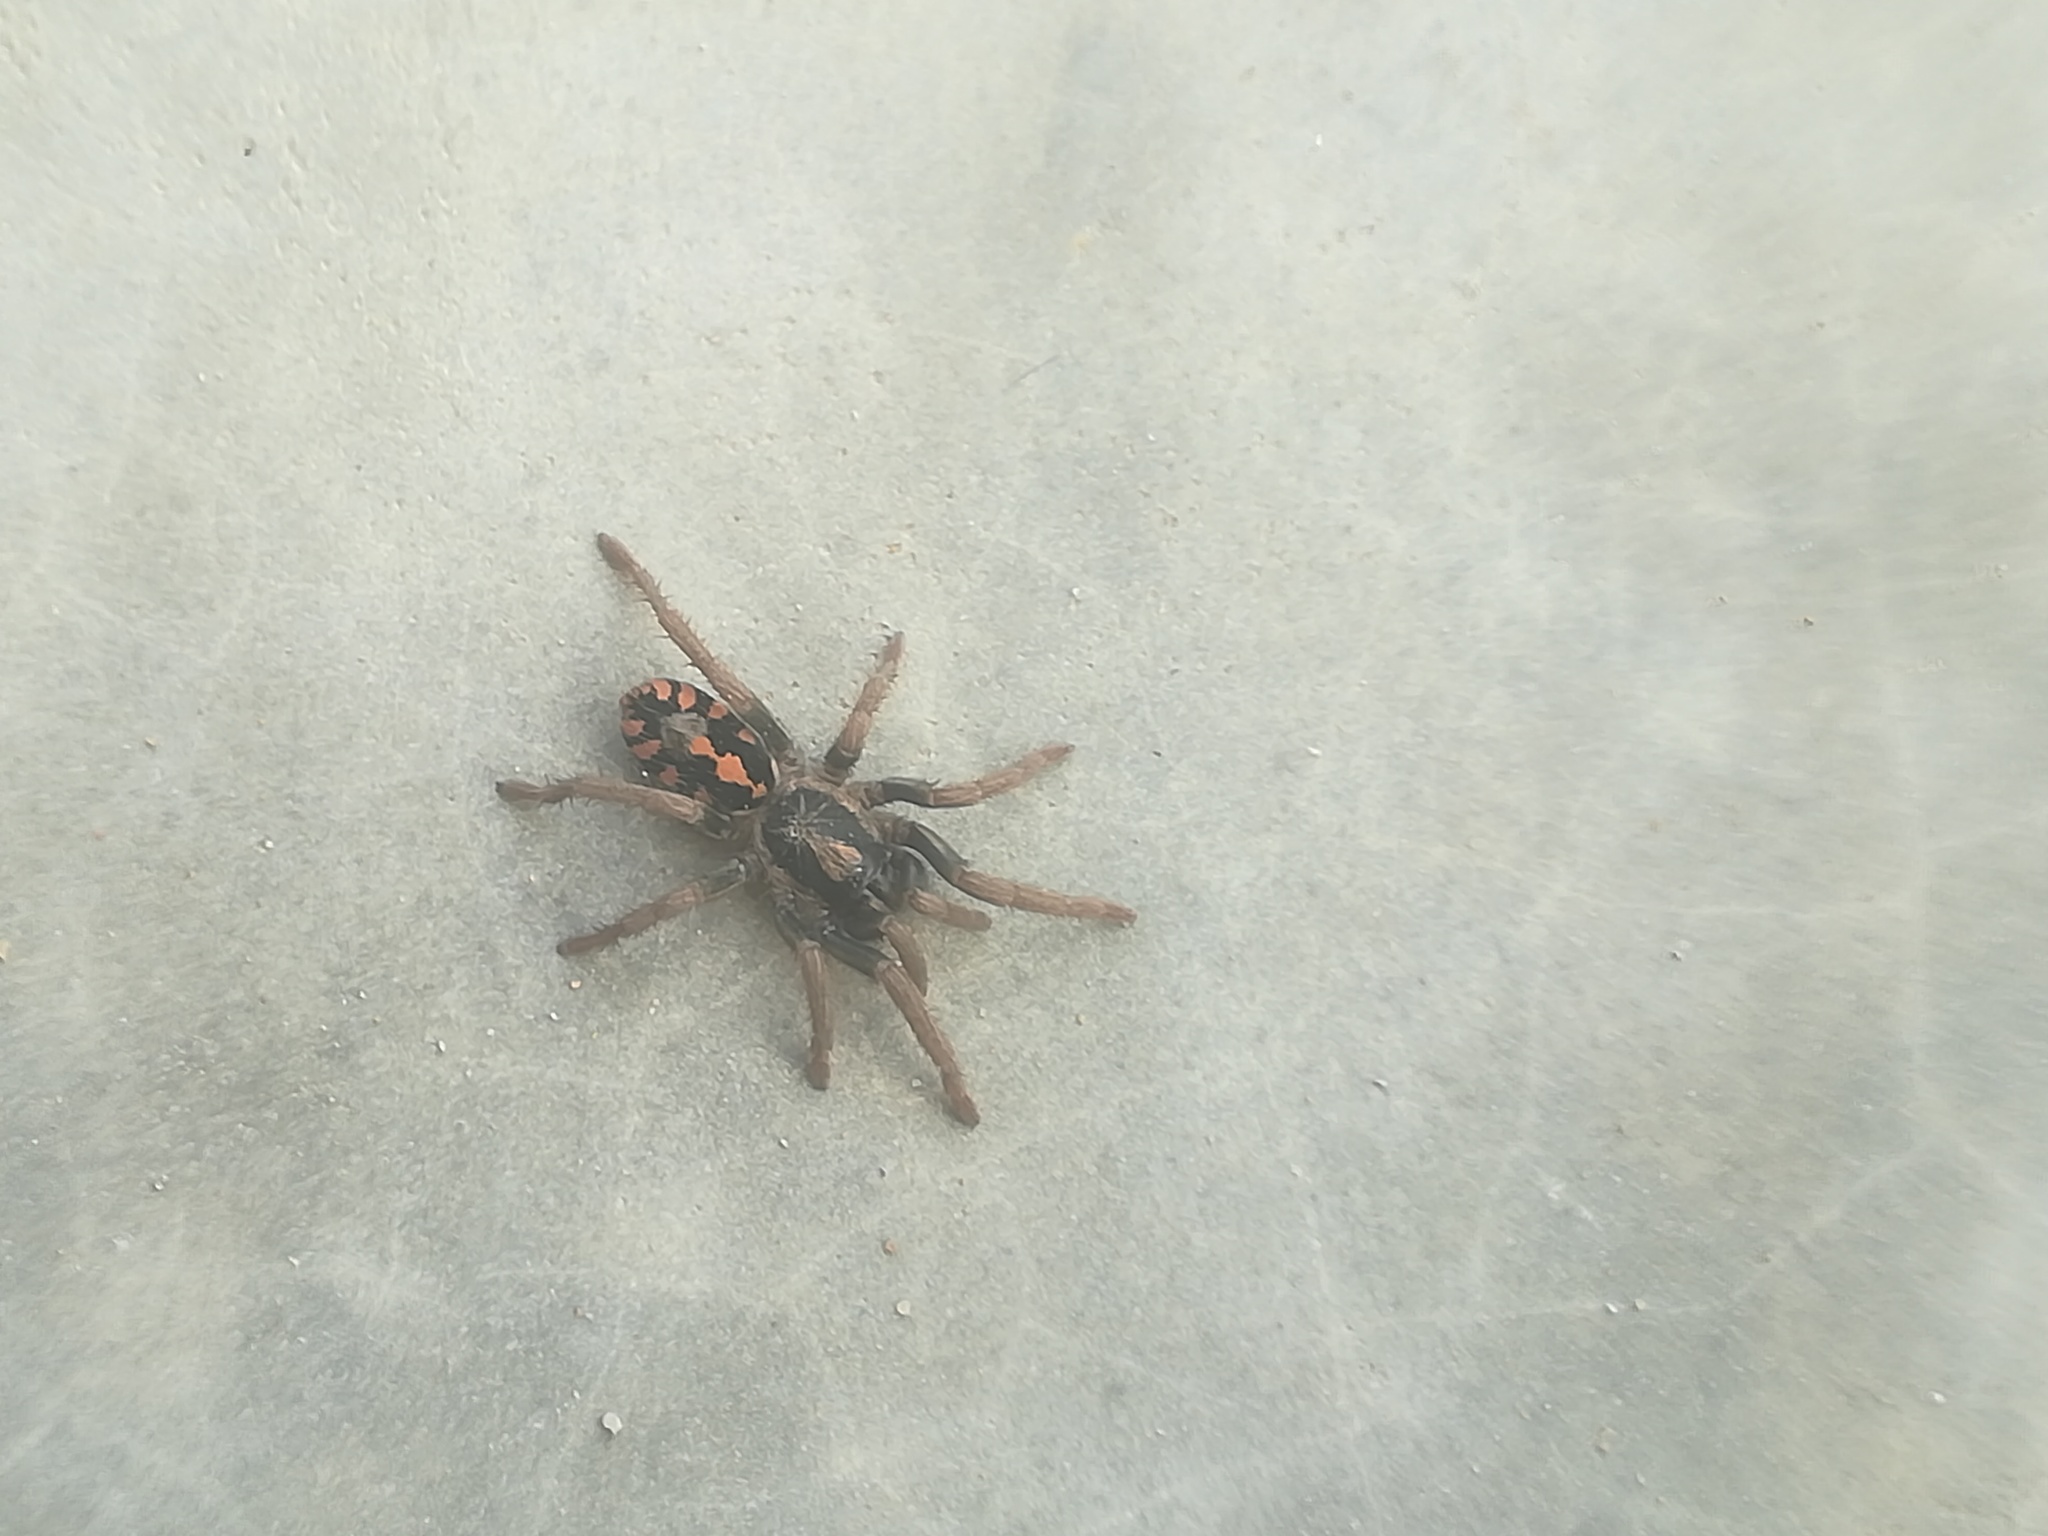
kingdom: Animalia
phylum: Arthropoda
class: Arachnida
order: Araneae
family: Theraphosidae
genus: Hapalopus
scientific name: Hapalopus formosus
